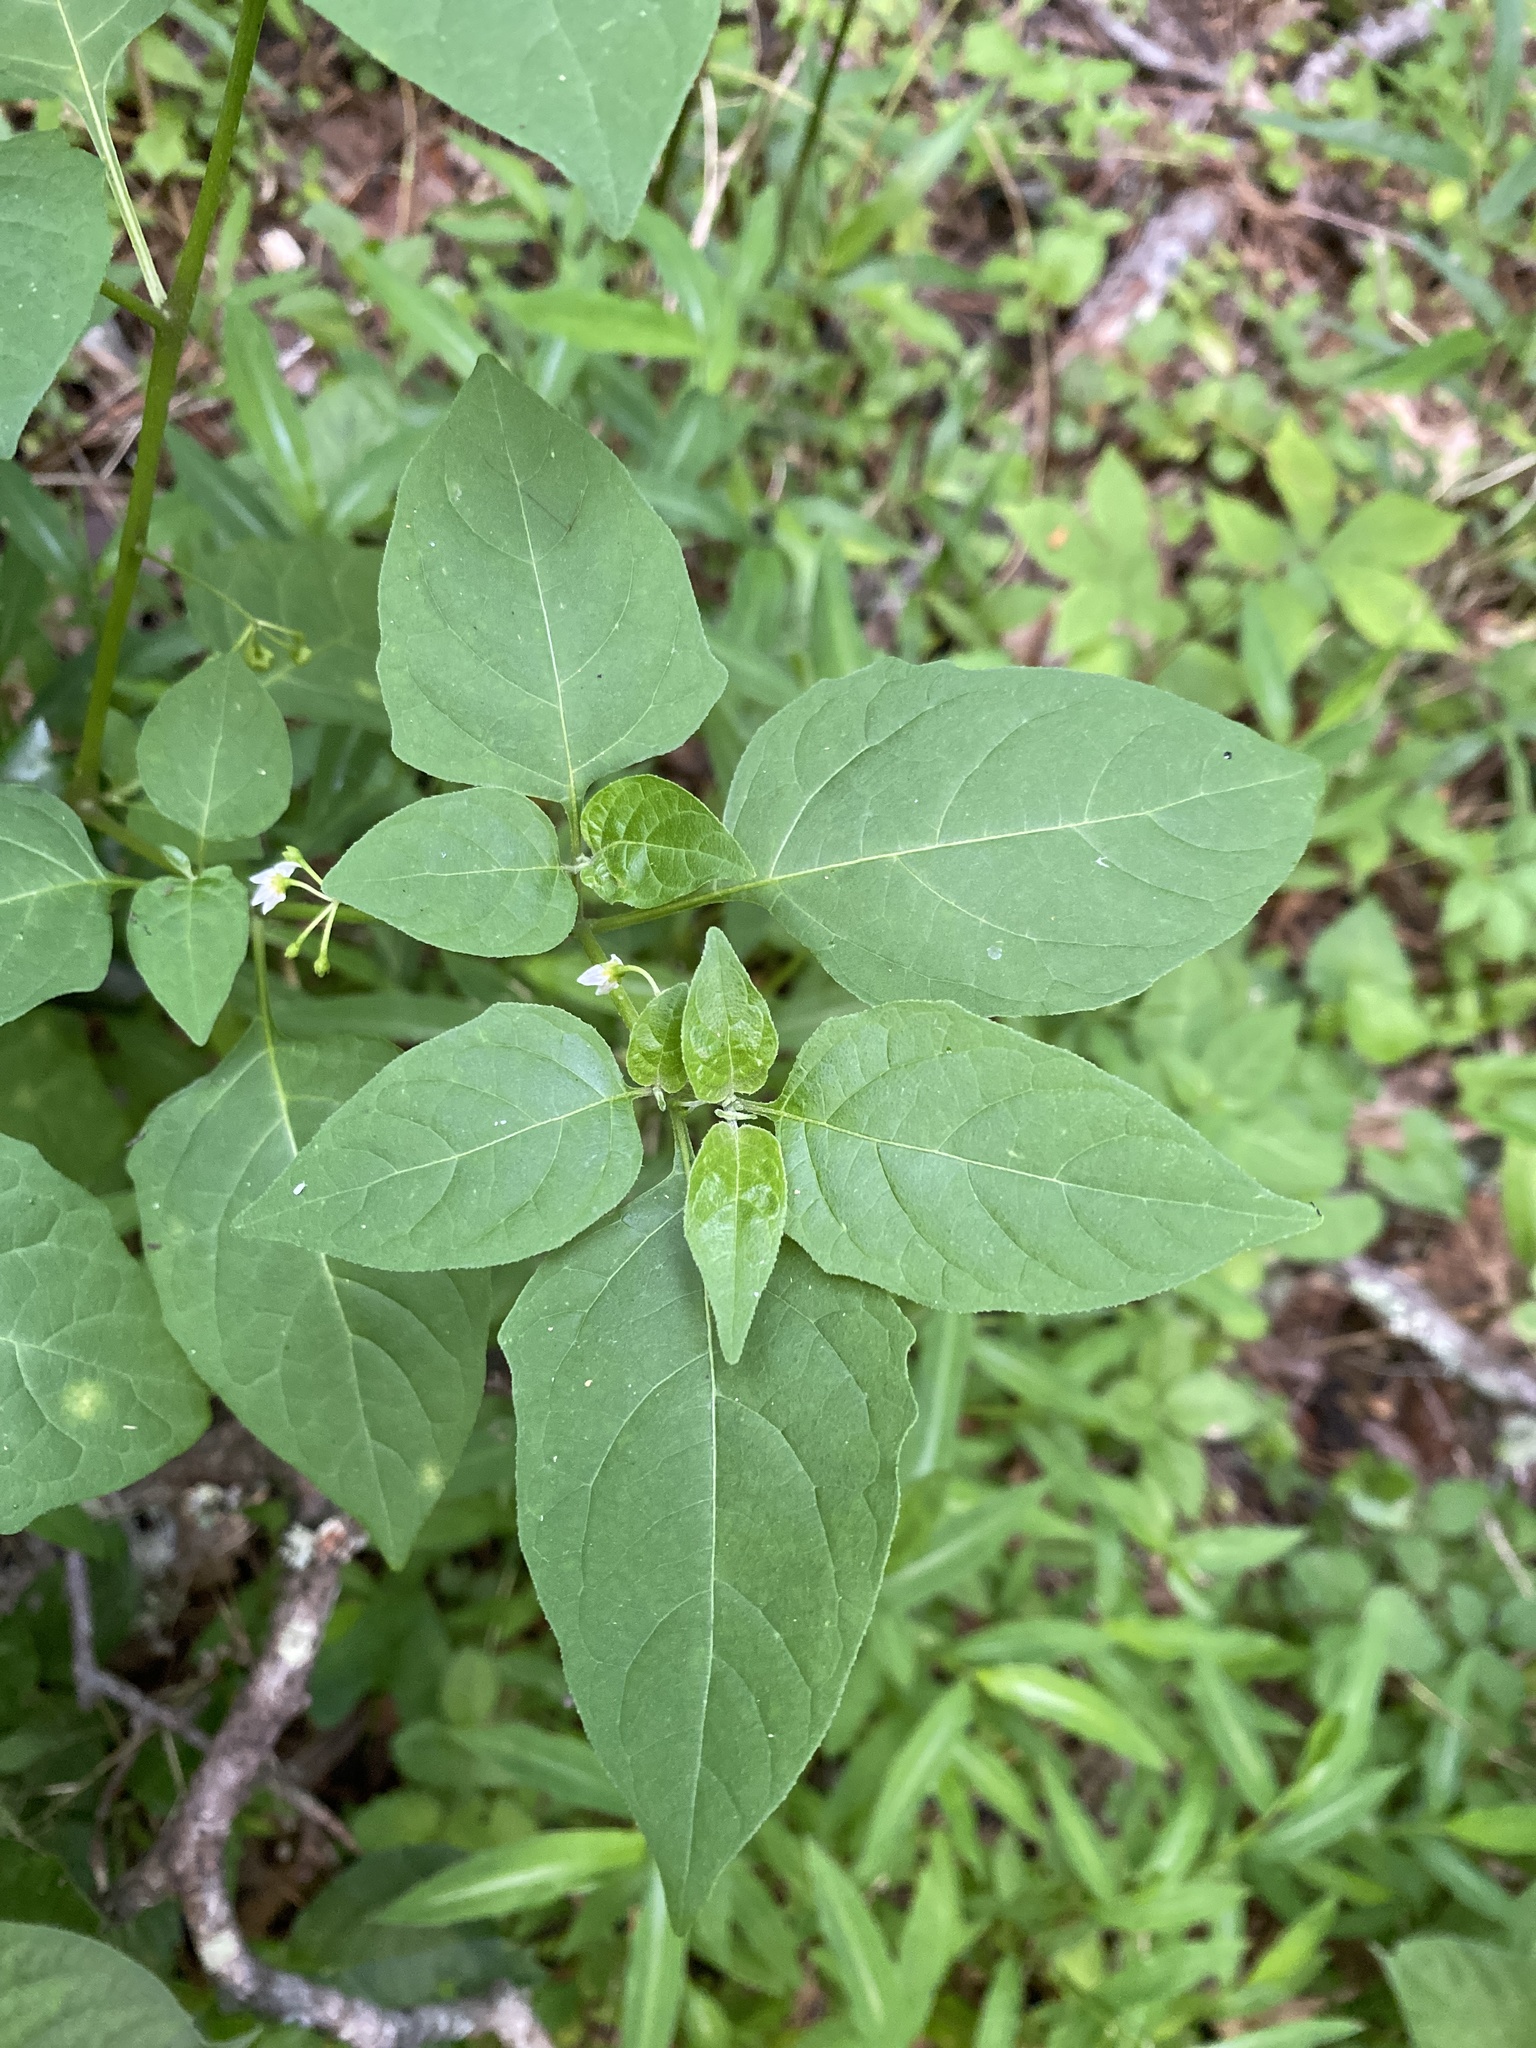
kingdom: Plantae
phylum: Tracheophyta
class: Magnoliopsida
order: Solanales
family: Solanaceae
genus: Solanum
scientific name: Solanum emulans
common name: Eastern black nightshade
